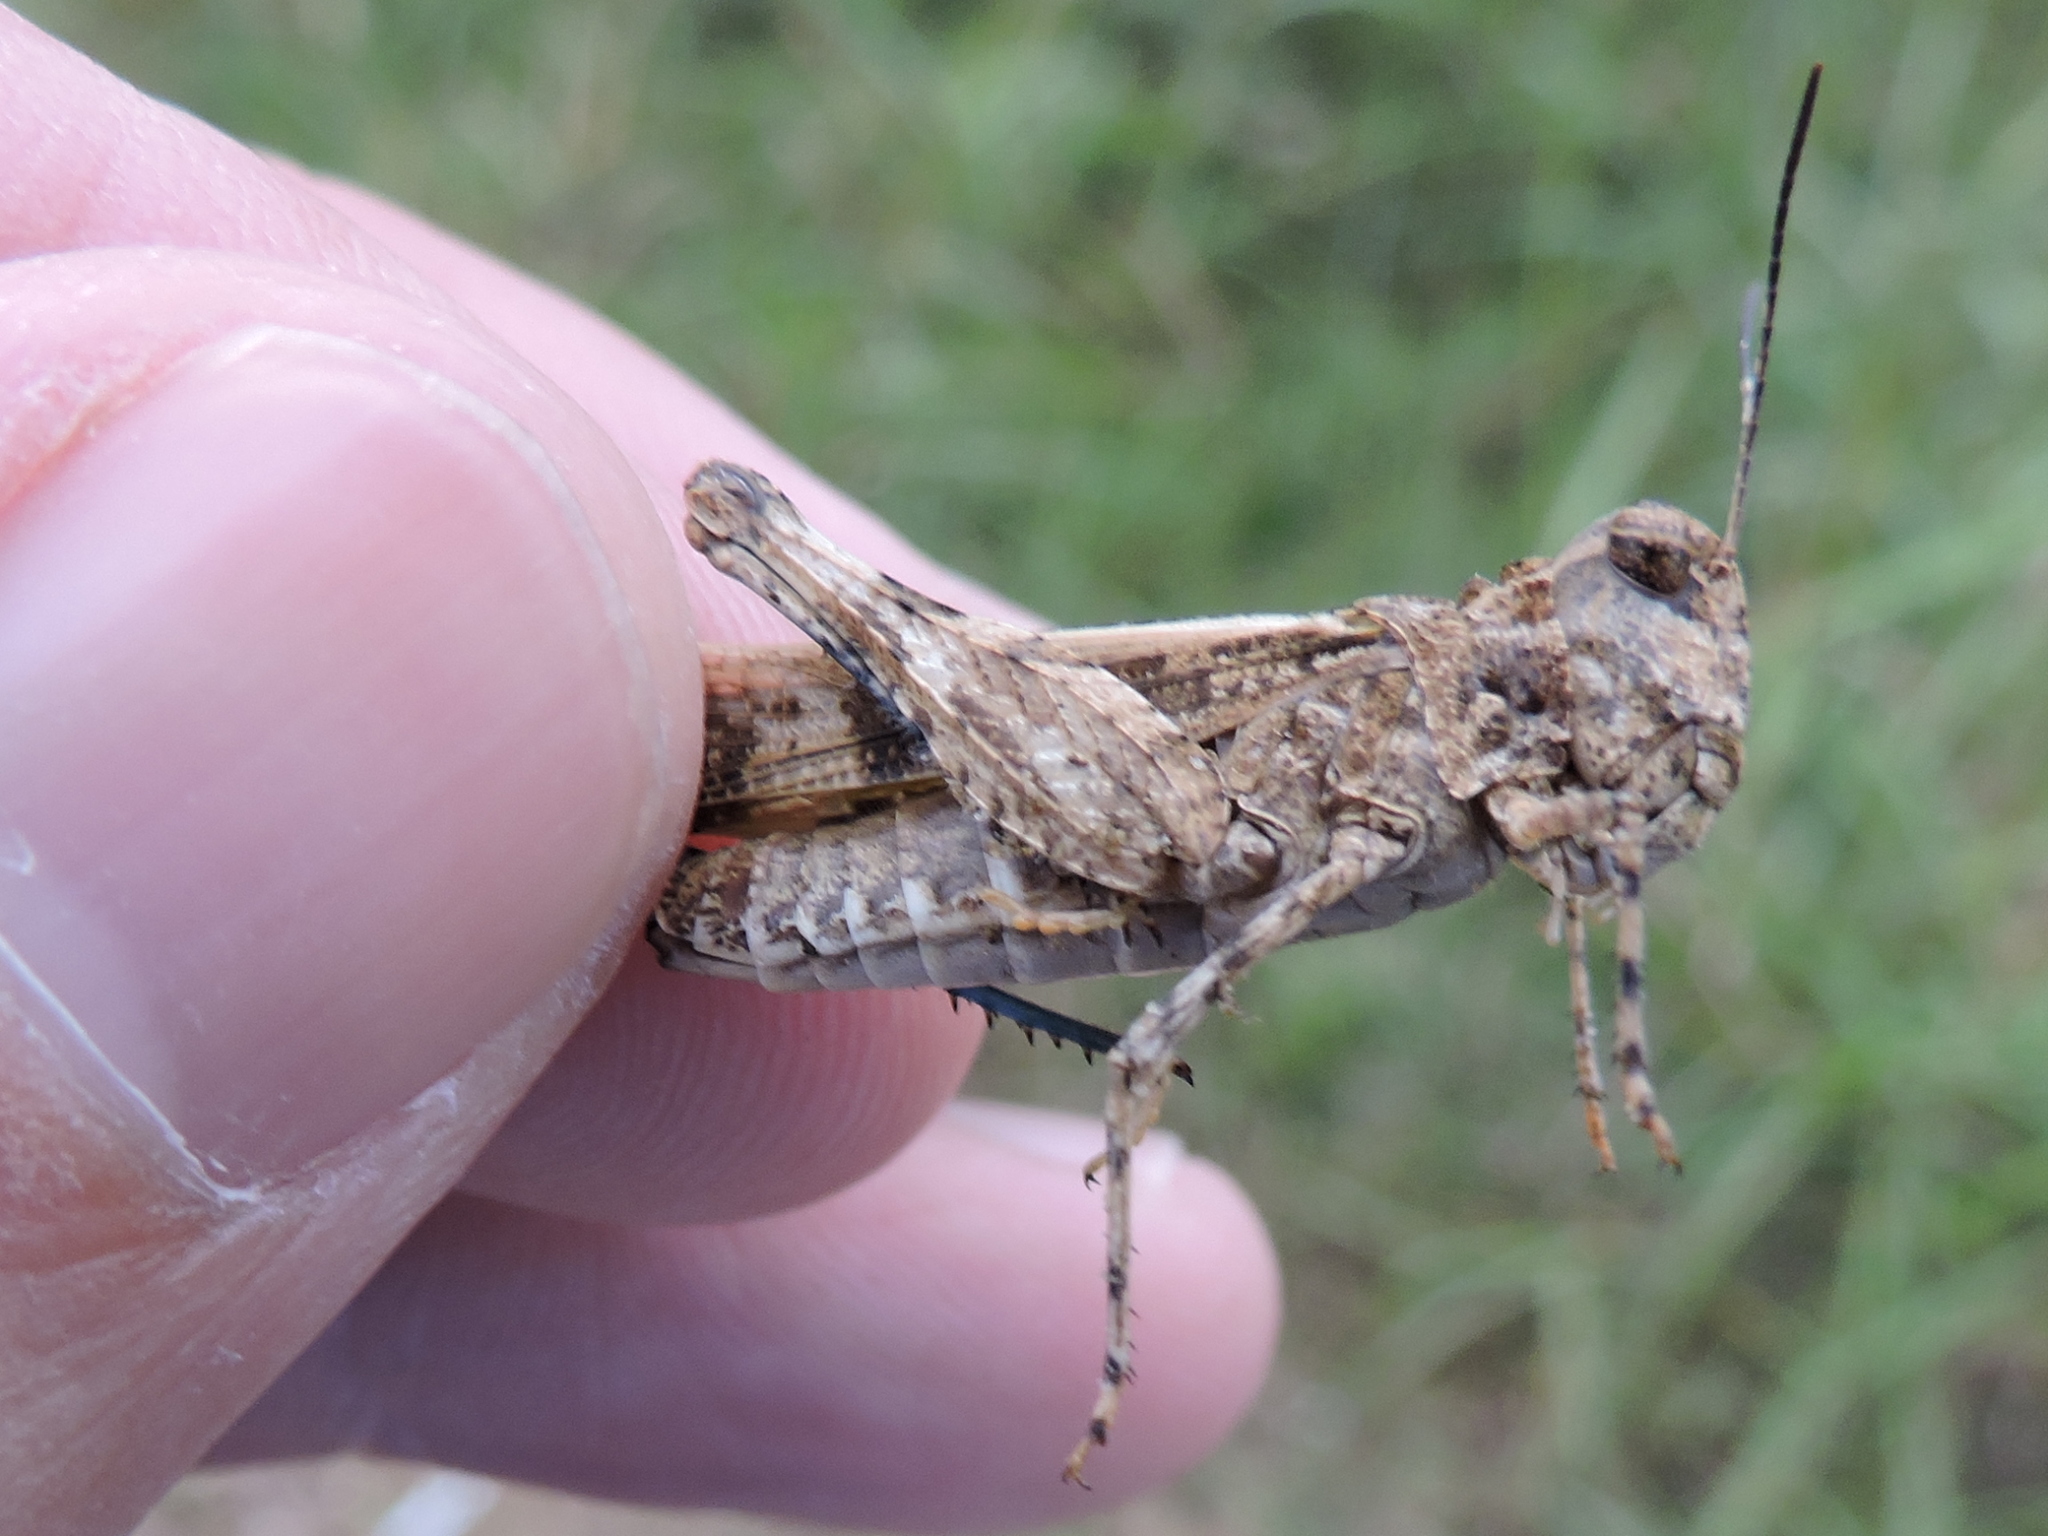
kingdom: Animalia
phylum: Arthropoda
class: Insecta
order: Orthoptera
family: Acrididae
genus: Trachyrhachys
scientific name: Trachyrhachys kiowa
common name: Kiowa grasshopper
